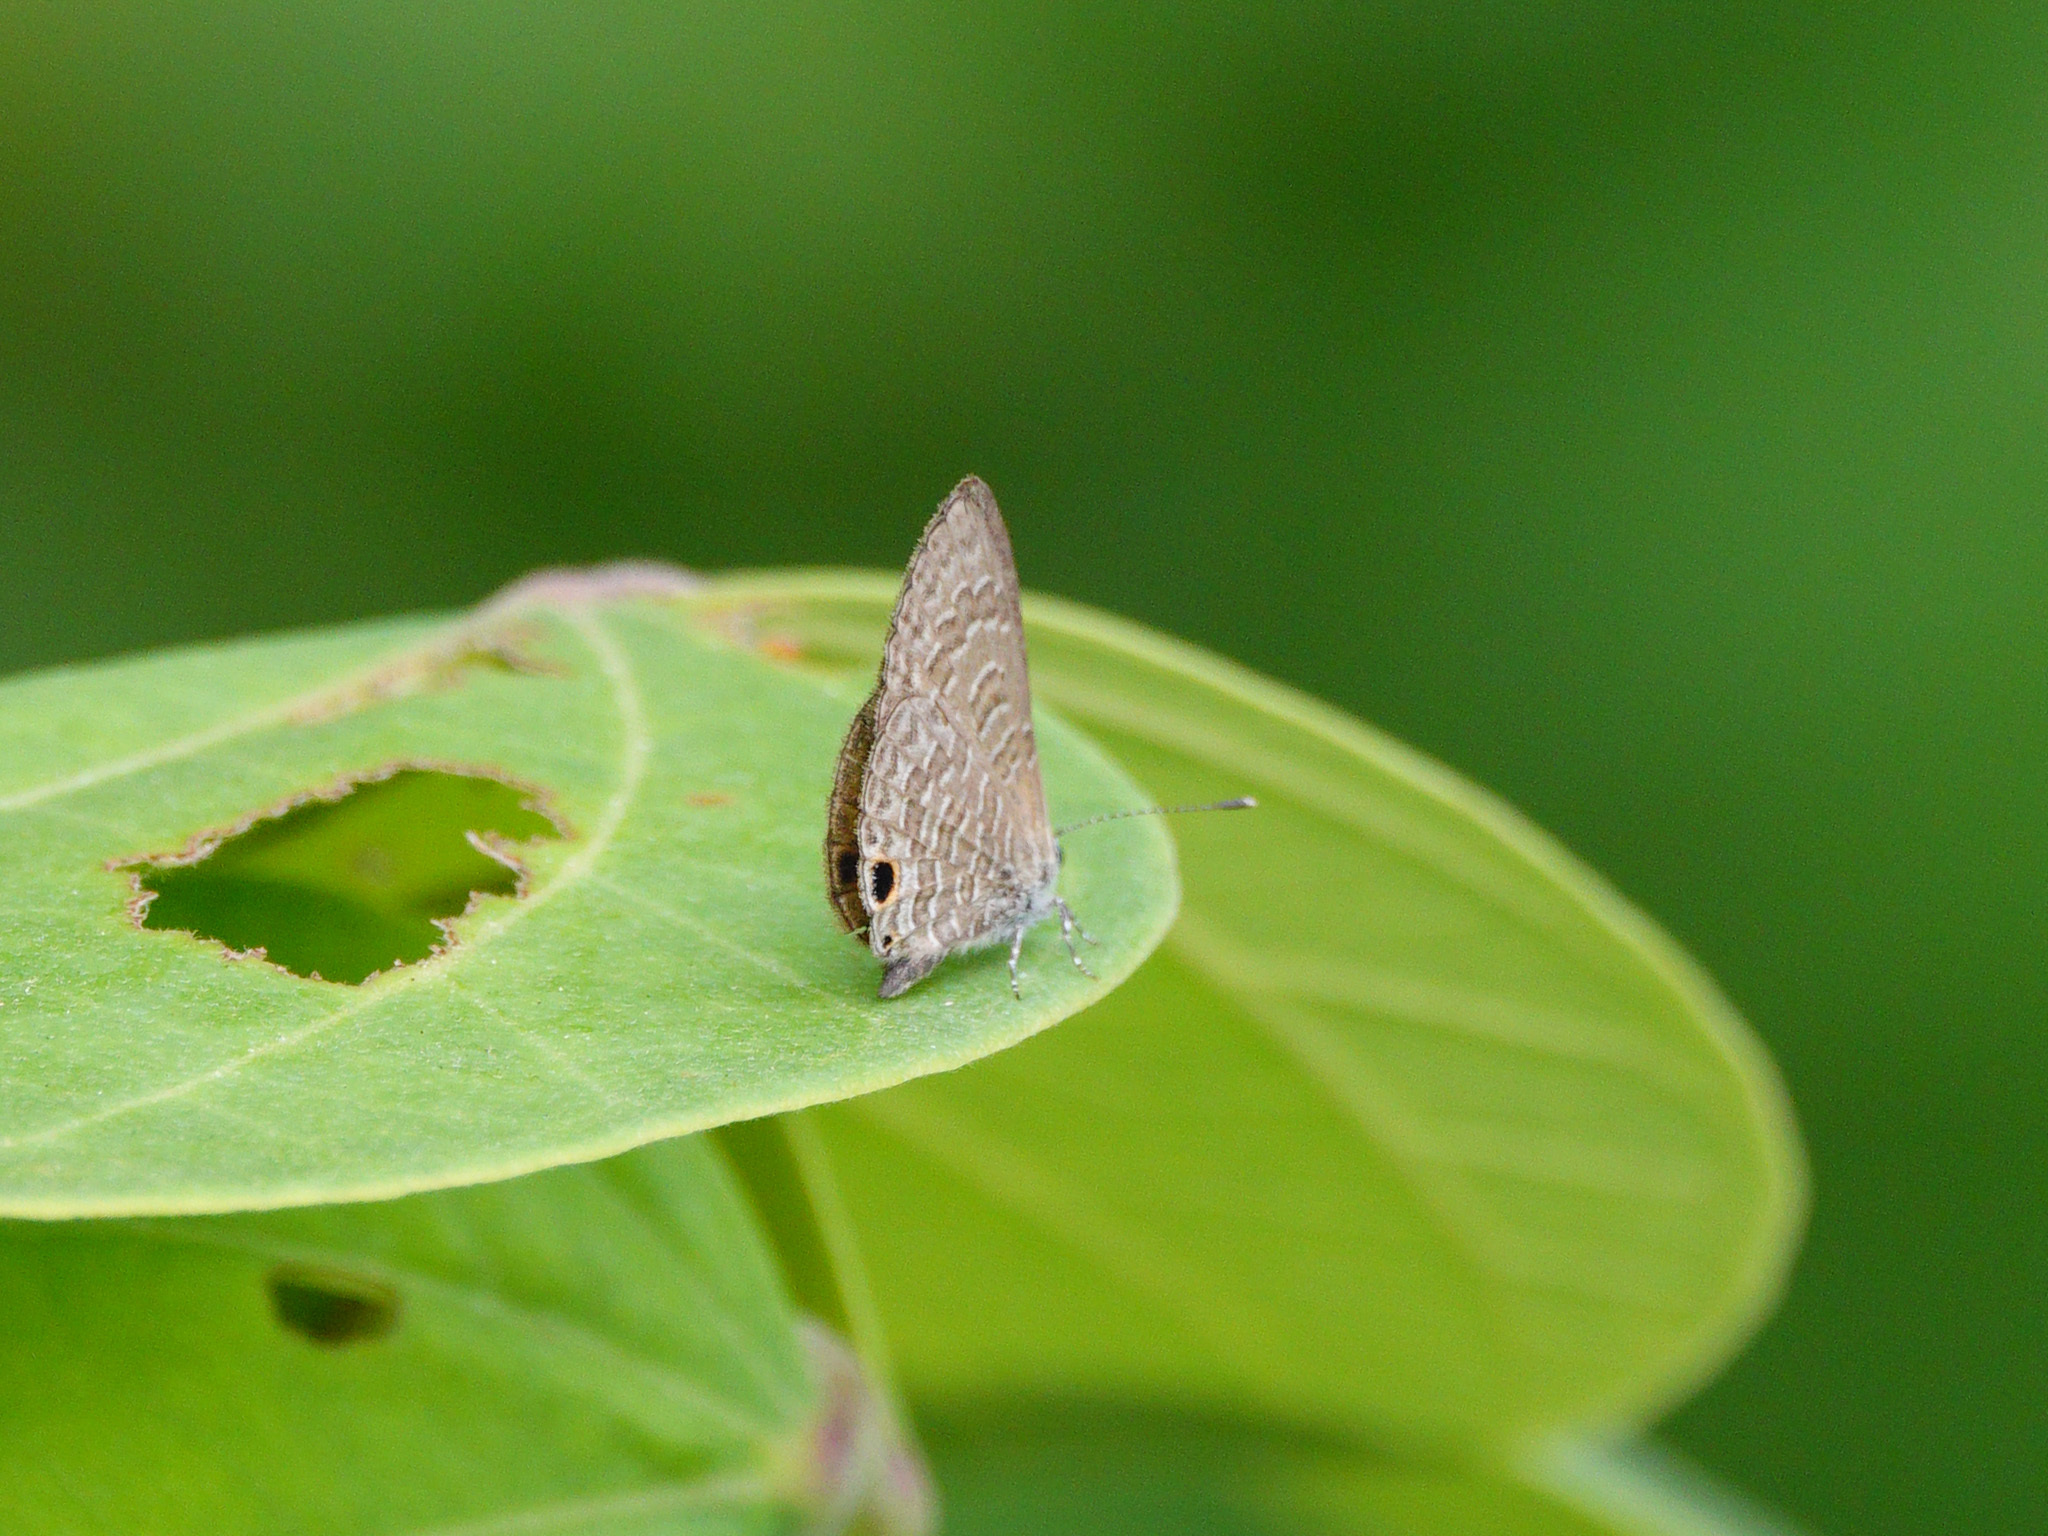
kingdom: Animalia
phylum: Arthropoda
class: Insecta
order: Lepidoptera
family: Lycaenidae
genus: Prosotas
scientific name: Prosotas dubiosa
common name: Tailless lineblue
